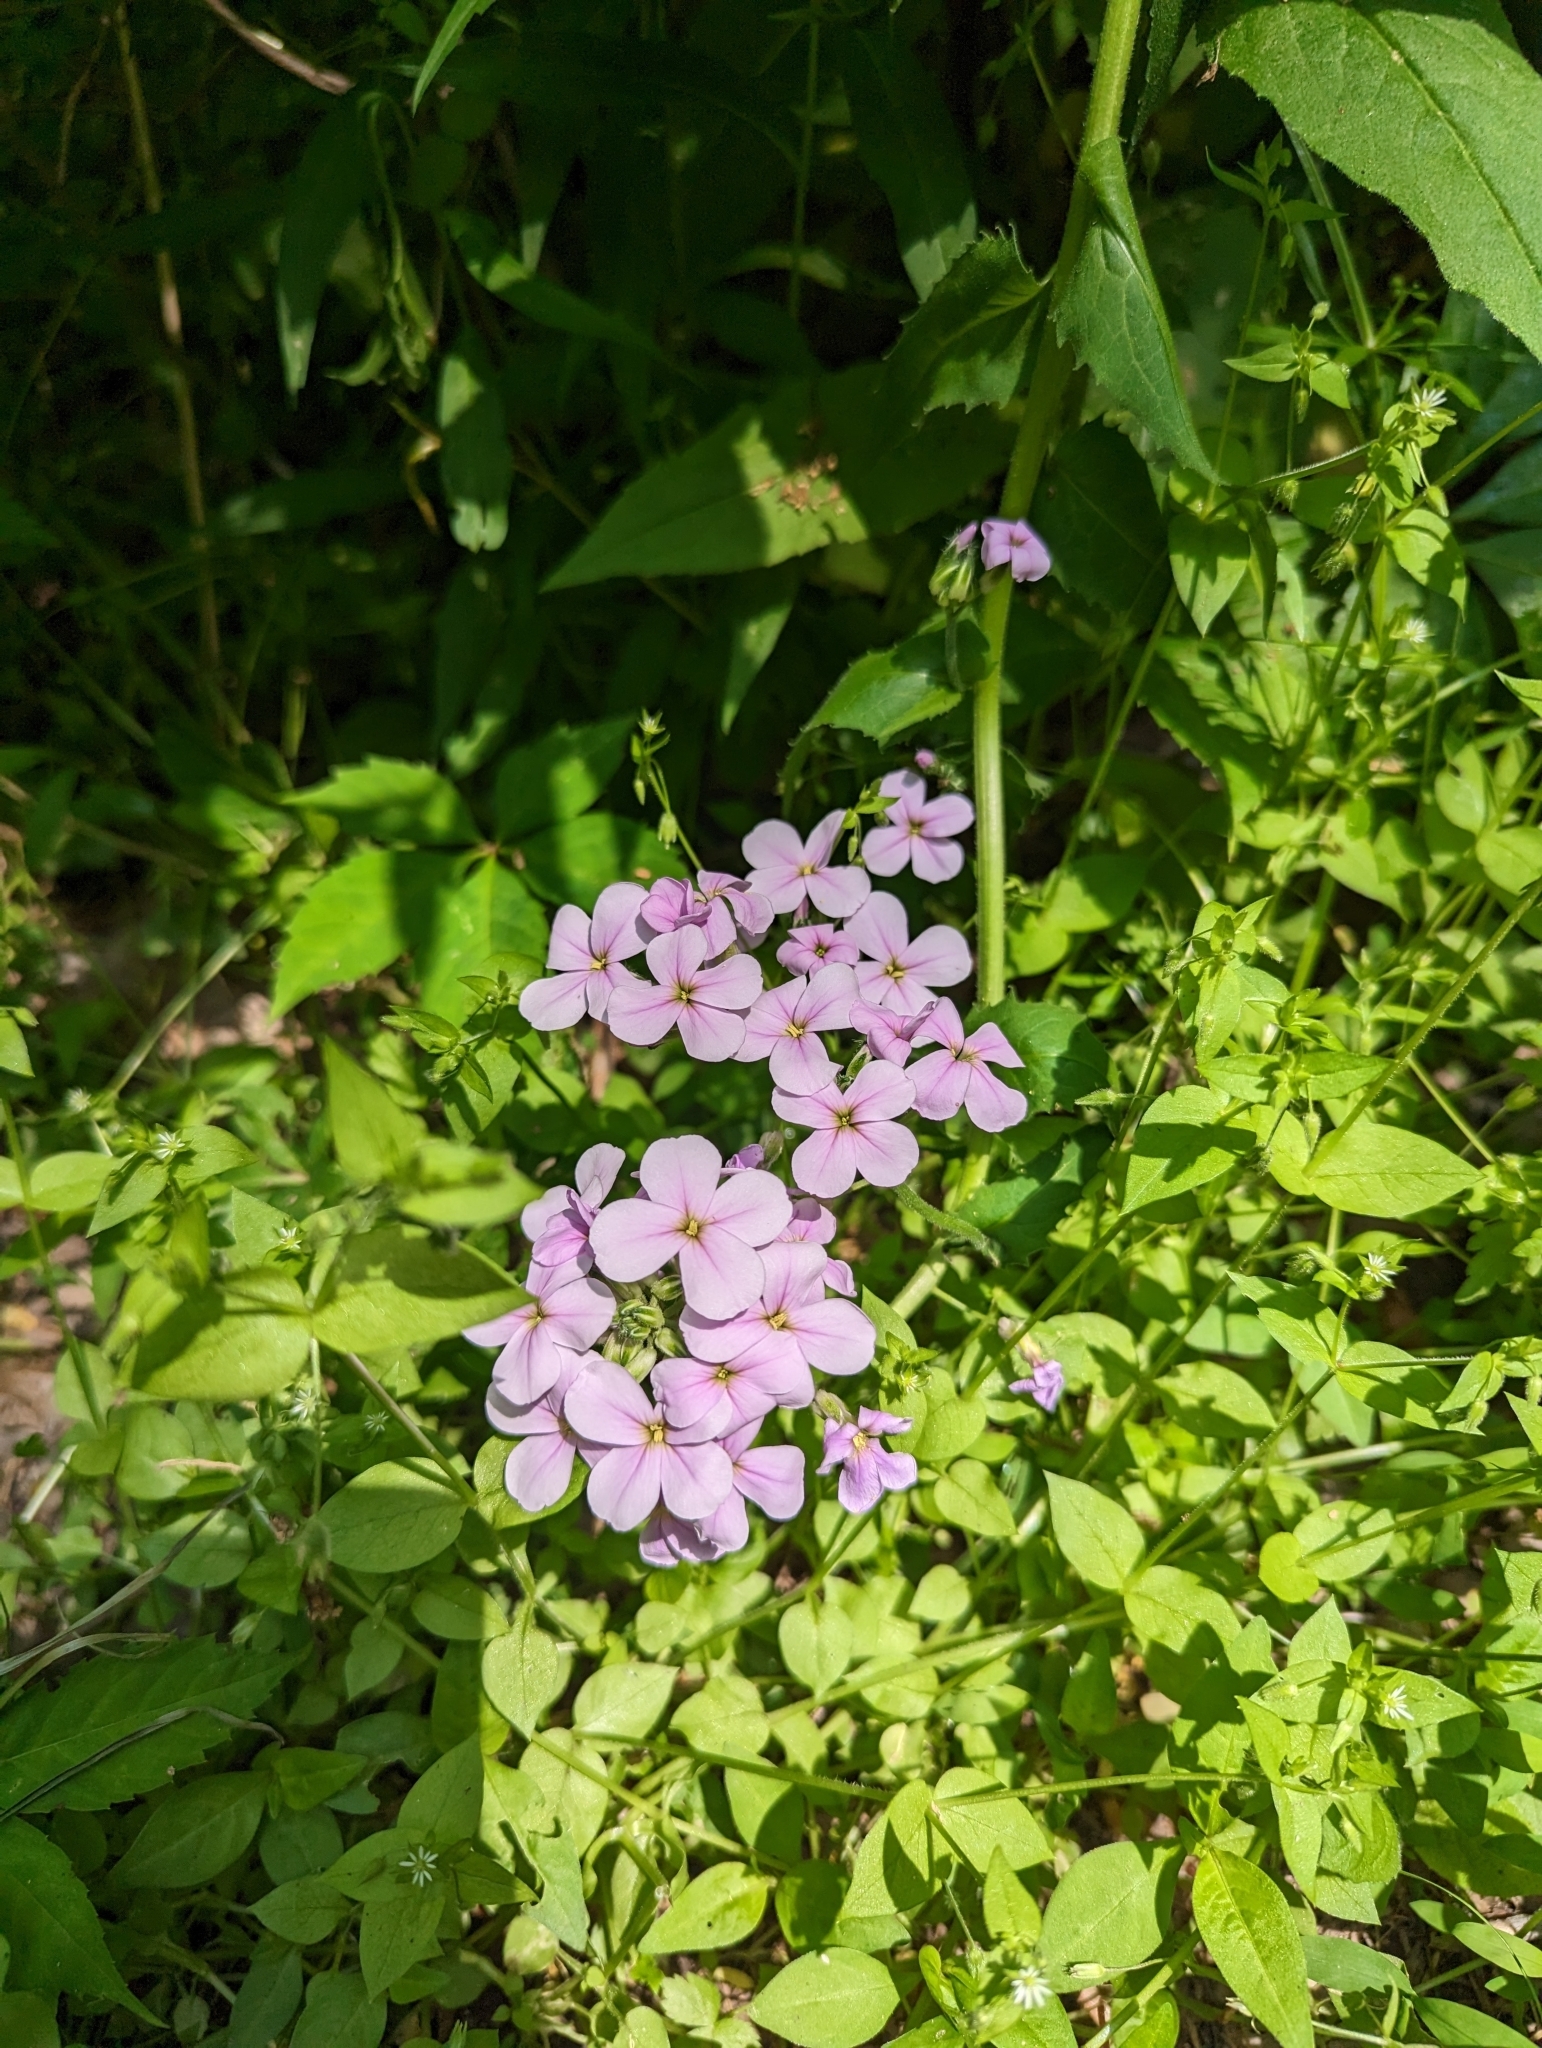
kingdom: Plantae
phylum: Tracheophyta
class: Magnoliopsida
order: Brassicales
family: Brassicaceae
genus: Hesperis
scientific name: Hesperis matronalis
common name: Dame's-violet
